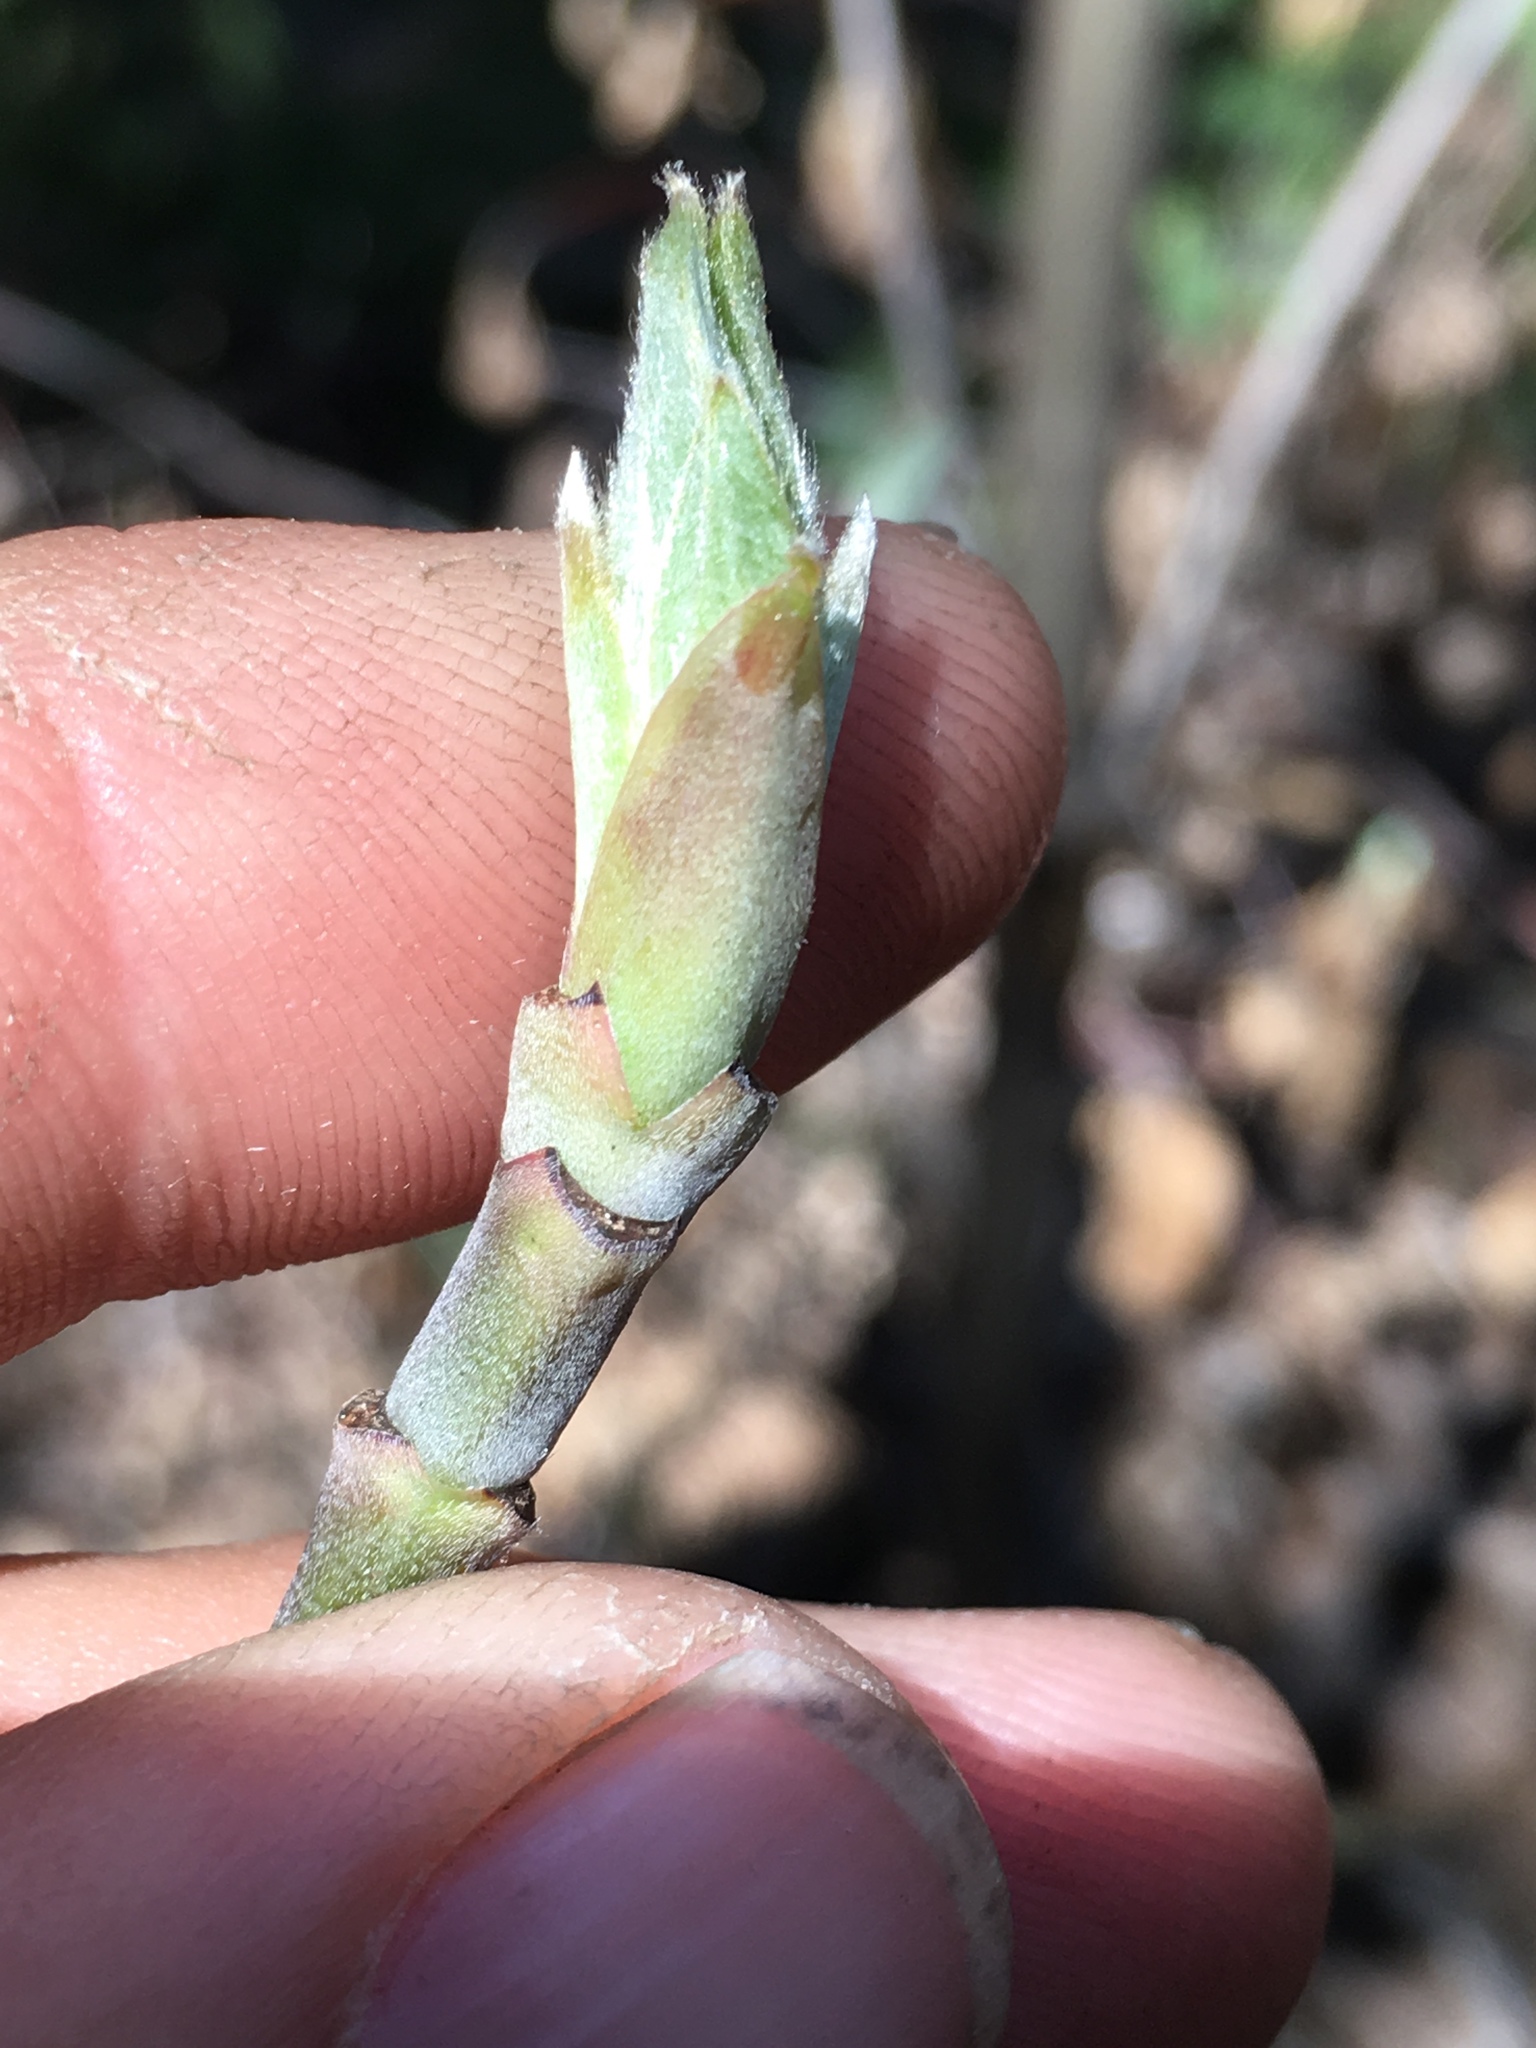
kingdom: Plantae
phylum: Tracheophyta
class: Magnoliopsida
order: Cornales
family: Cornaceae
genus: Cornus
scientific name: Cornus nuttallii
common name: Pacific dogwood
